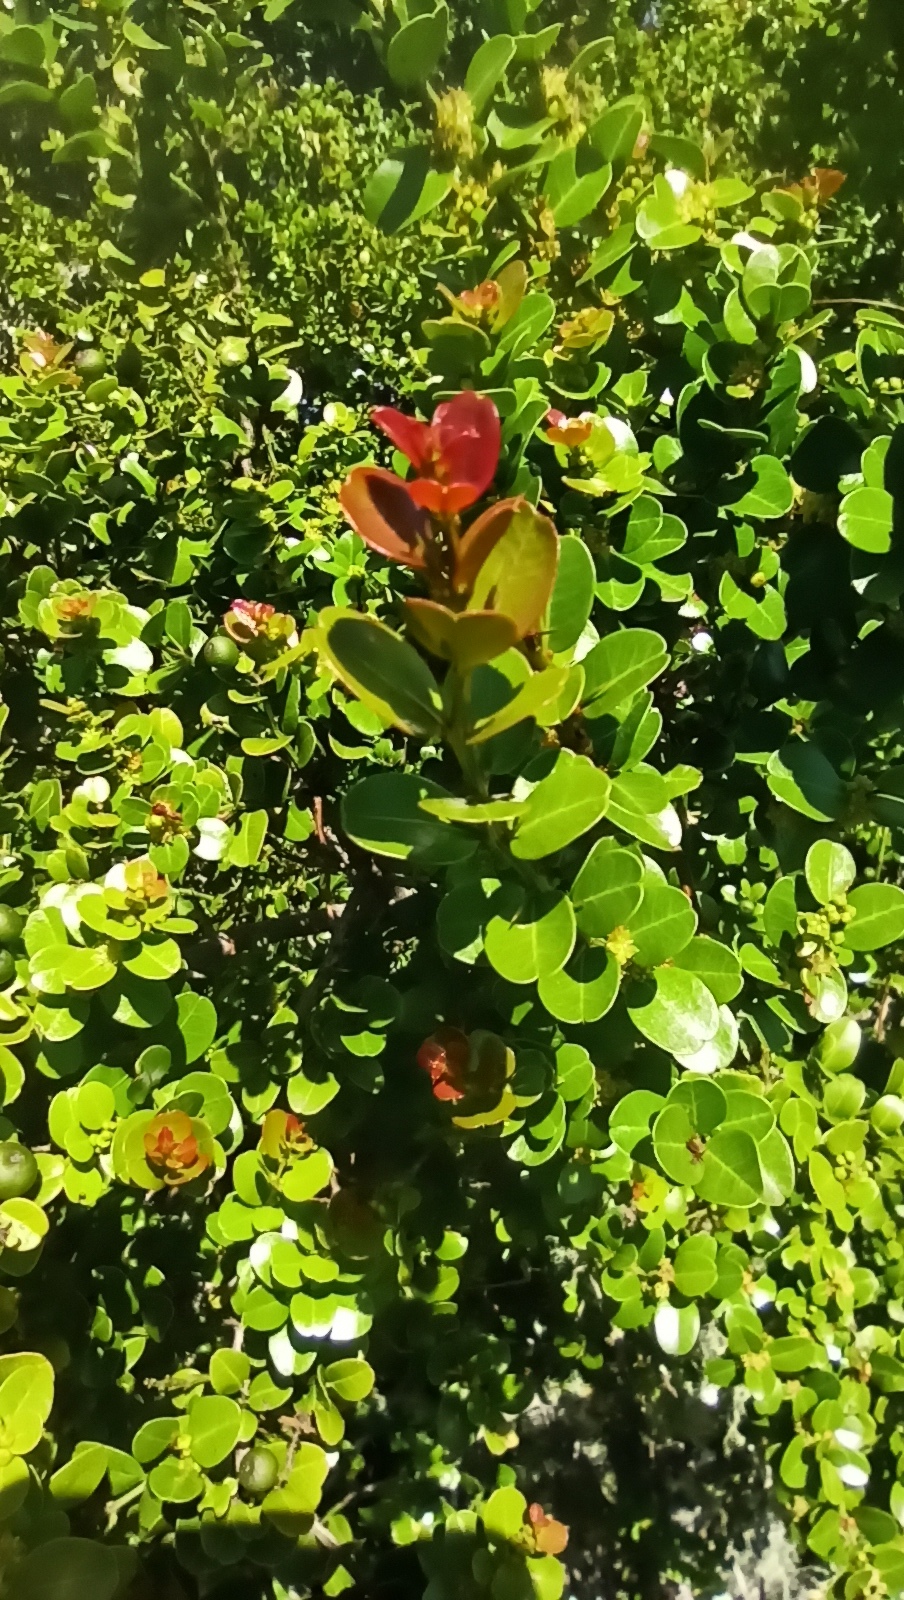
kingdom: Plantae
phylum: Tracheophyta
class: Magnoliopsida
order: Rosales
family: Rhamnaceae
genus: Scutia
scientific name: Scutia buxifolia
